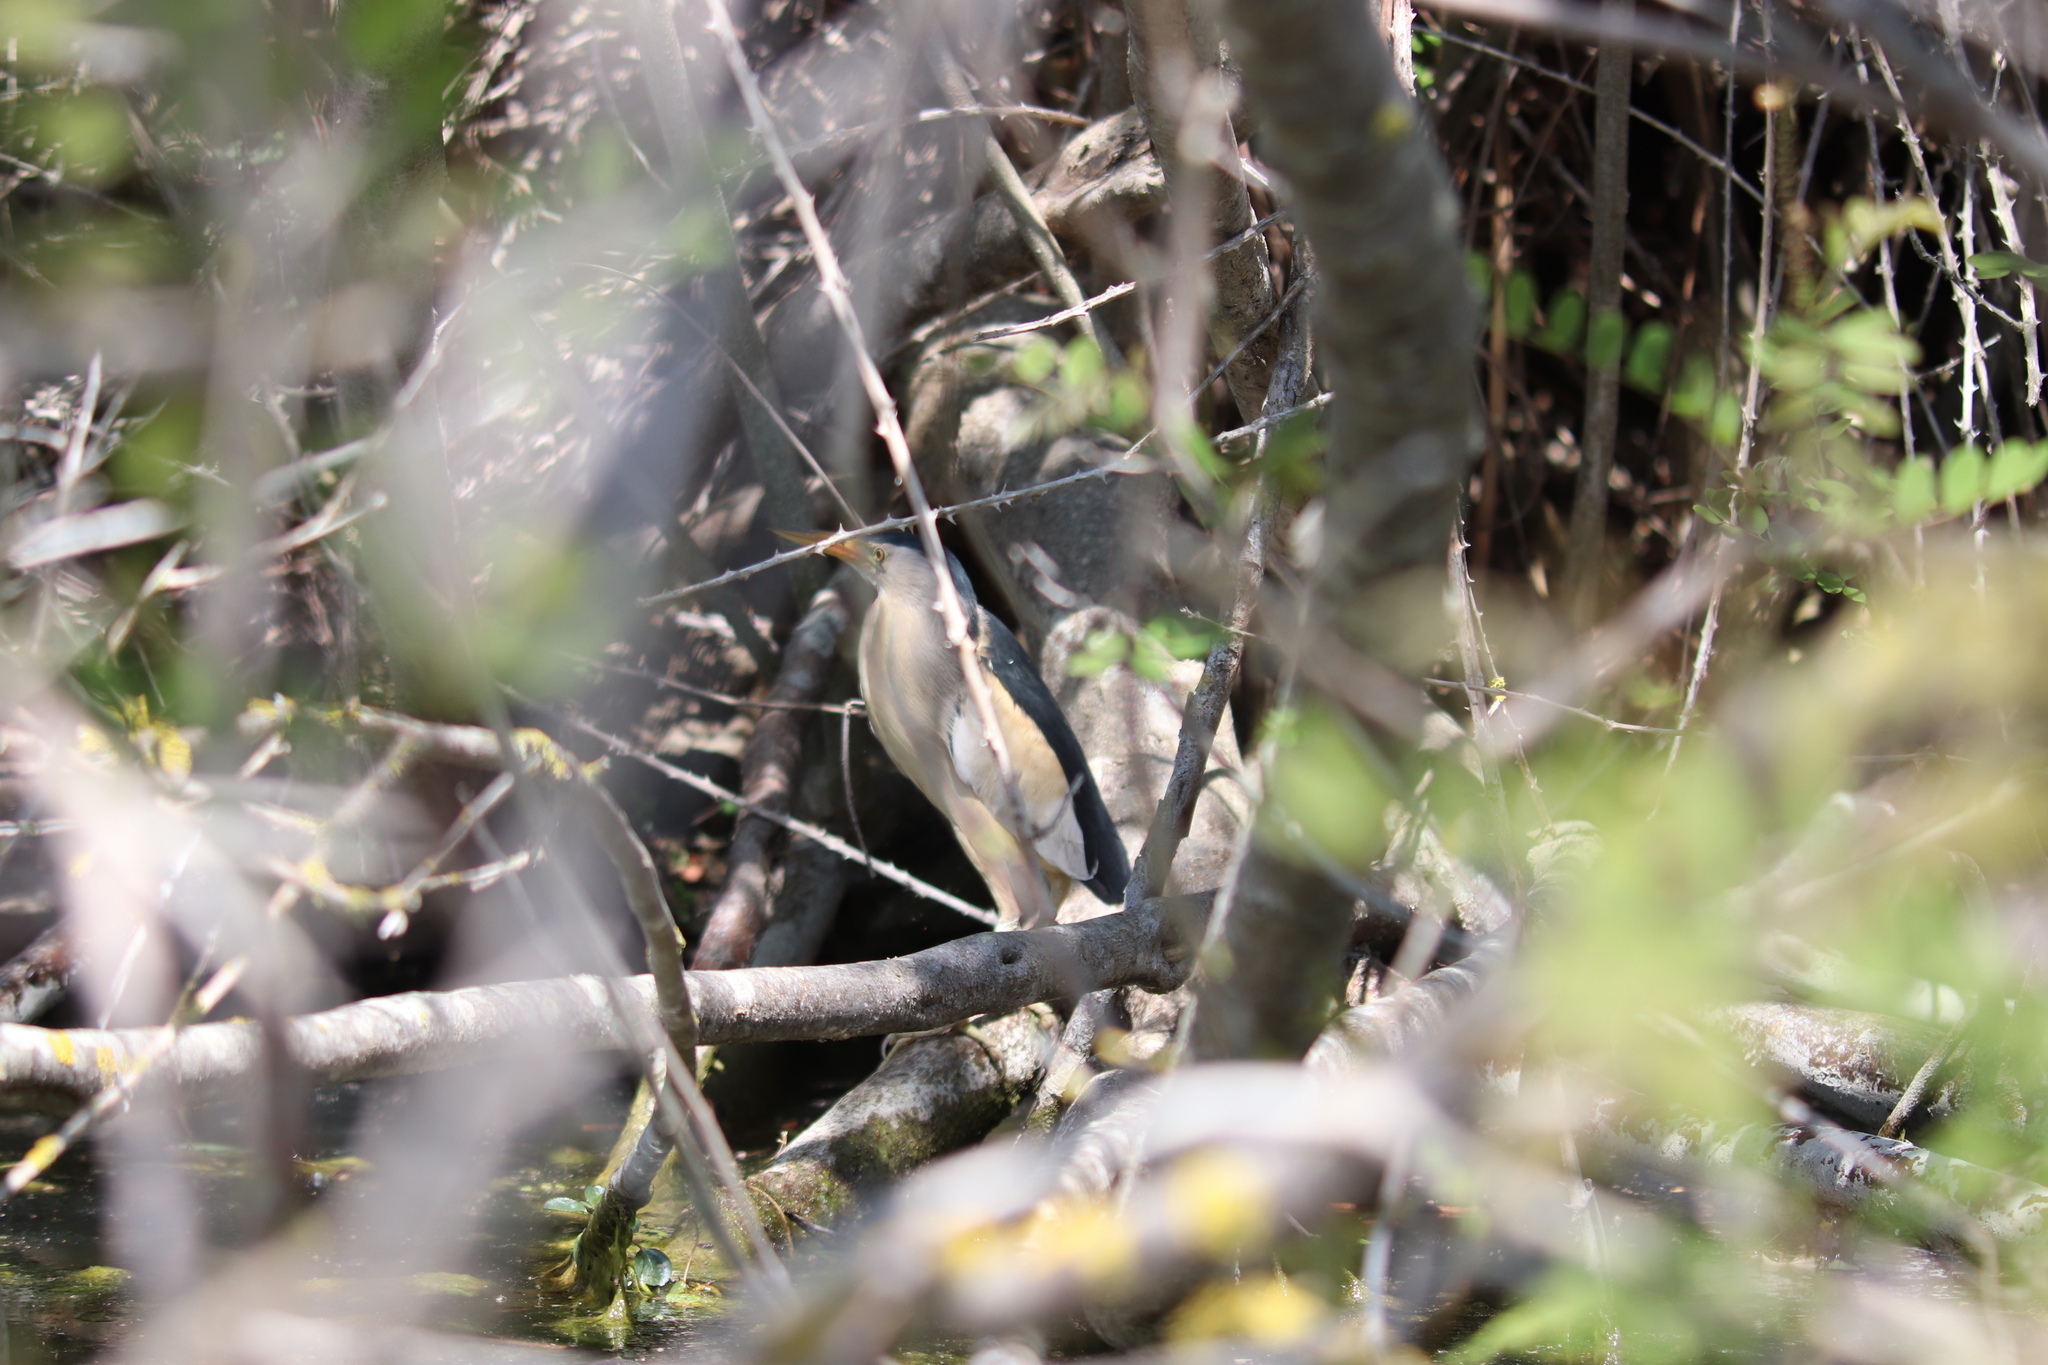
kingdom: Animalia
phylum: Chordata
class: Aves
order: Pelecaniformes
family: Ardeidae
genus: Ixobrychus
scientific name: Ixobrychus minutus
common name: Little bittern
